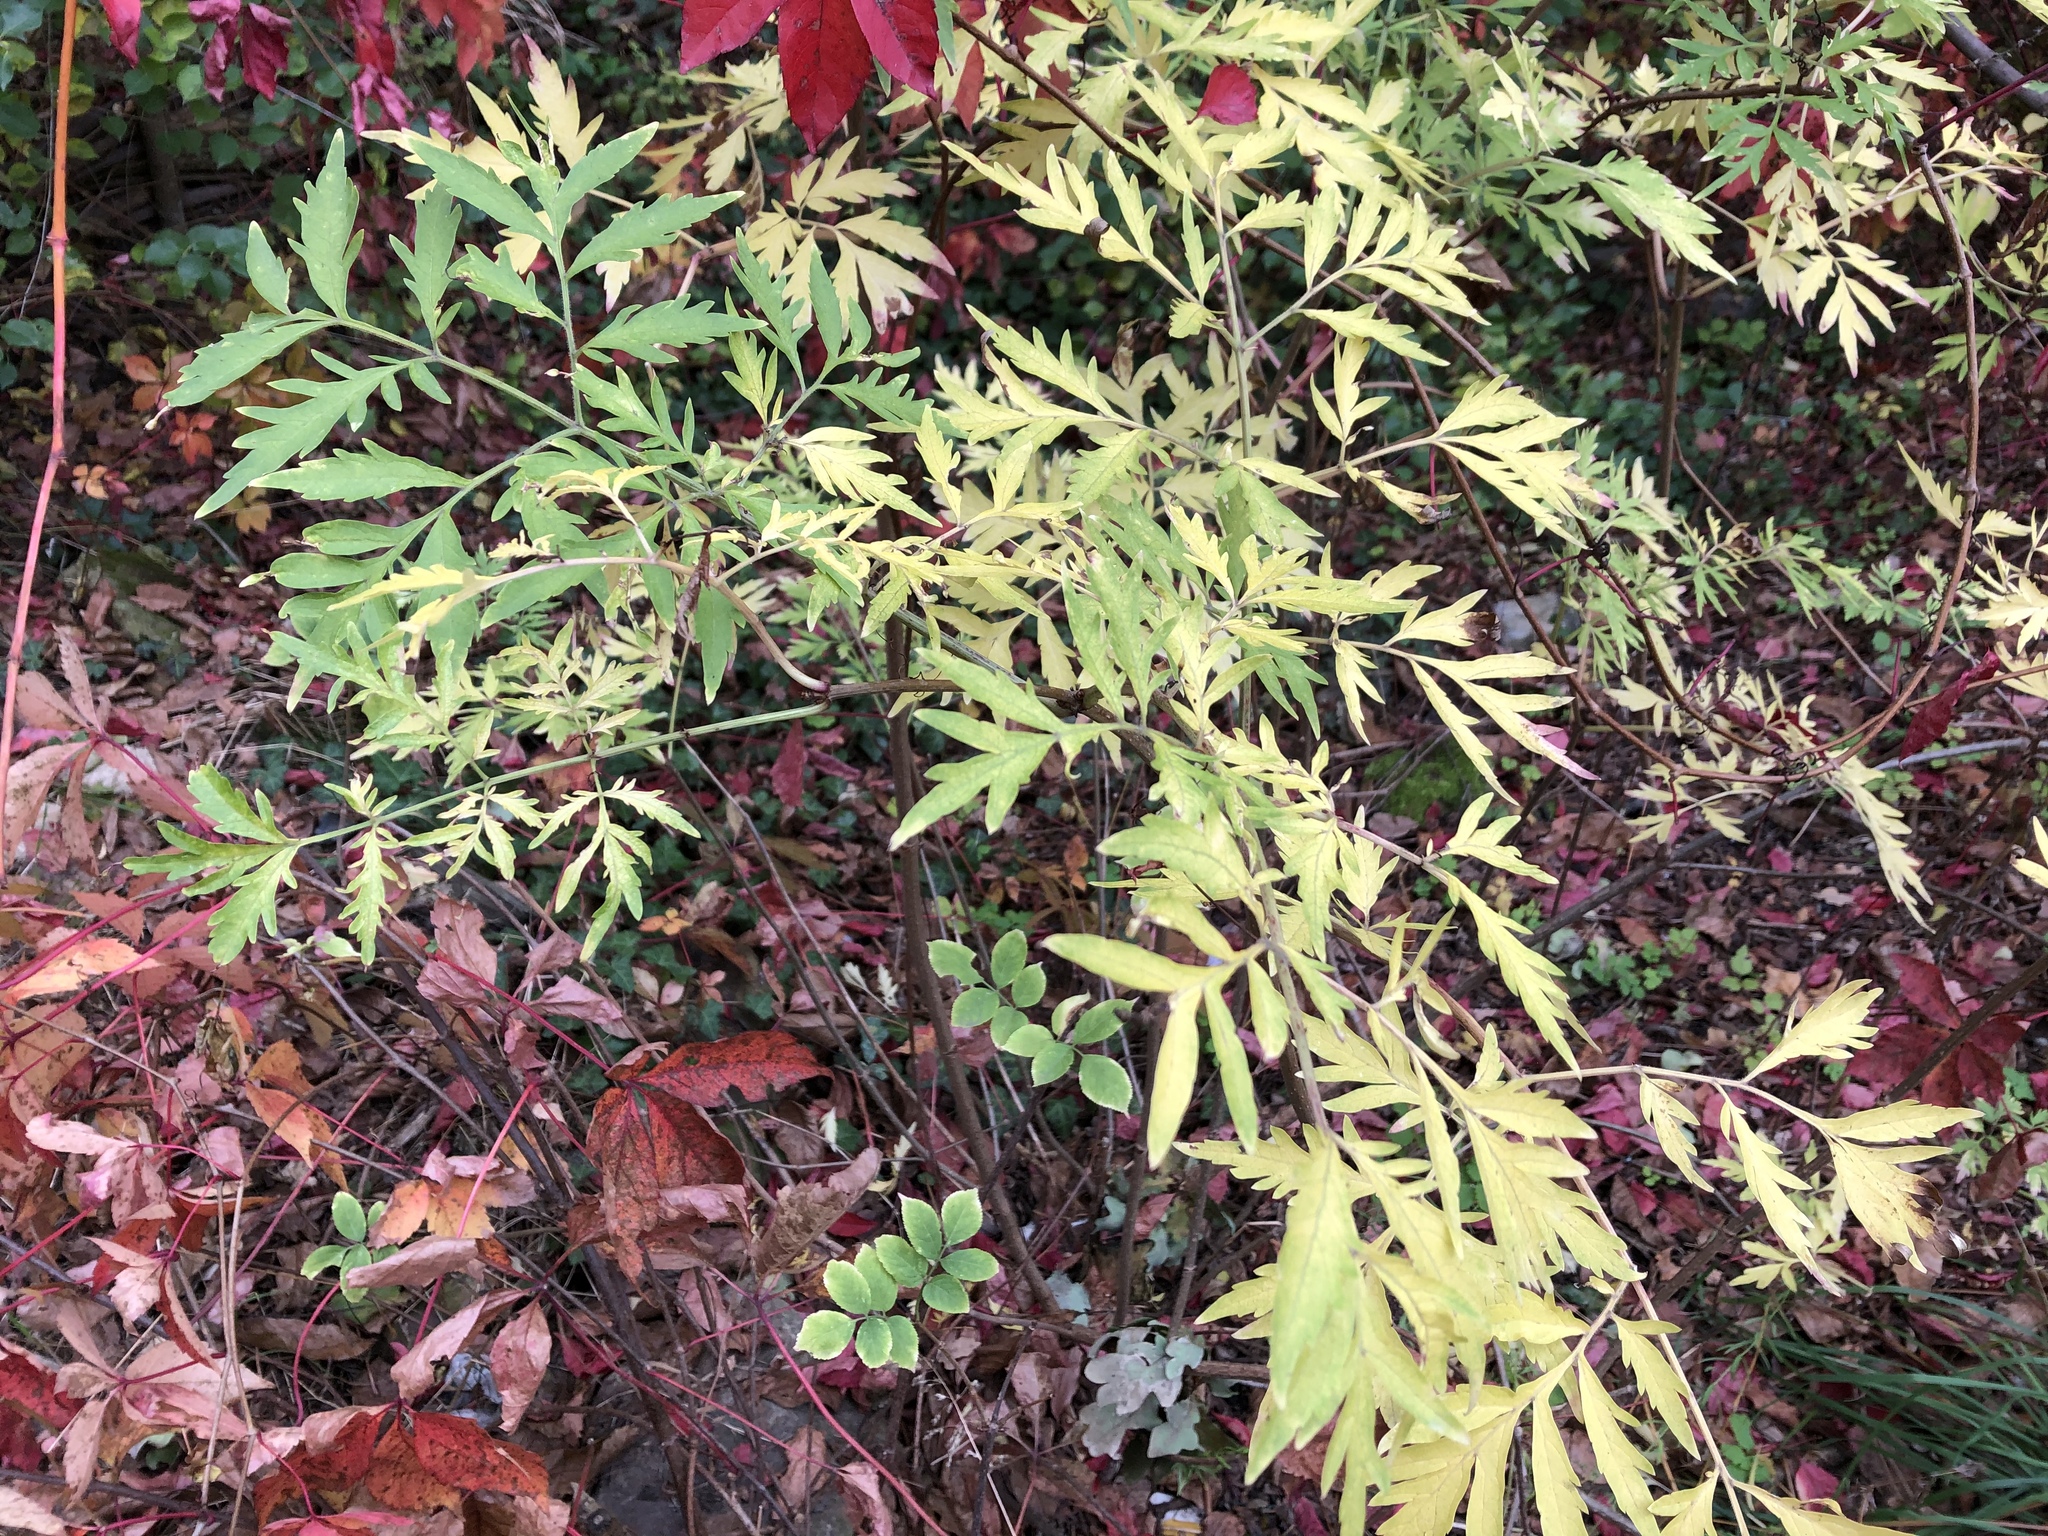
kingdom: Plantae
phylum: Tracheophyta
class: Magnoliopsida
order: Dipsacales
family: Viburnaceae
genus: Sambucus
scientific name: Sambucus nigra
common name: Elder
